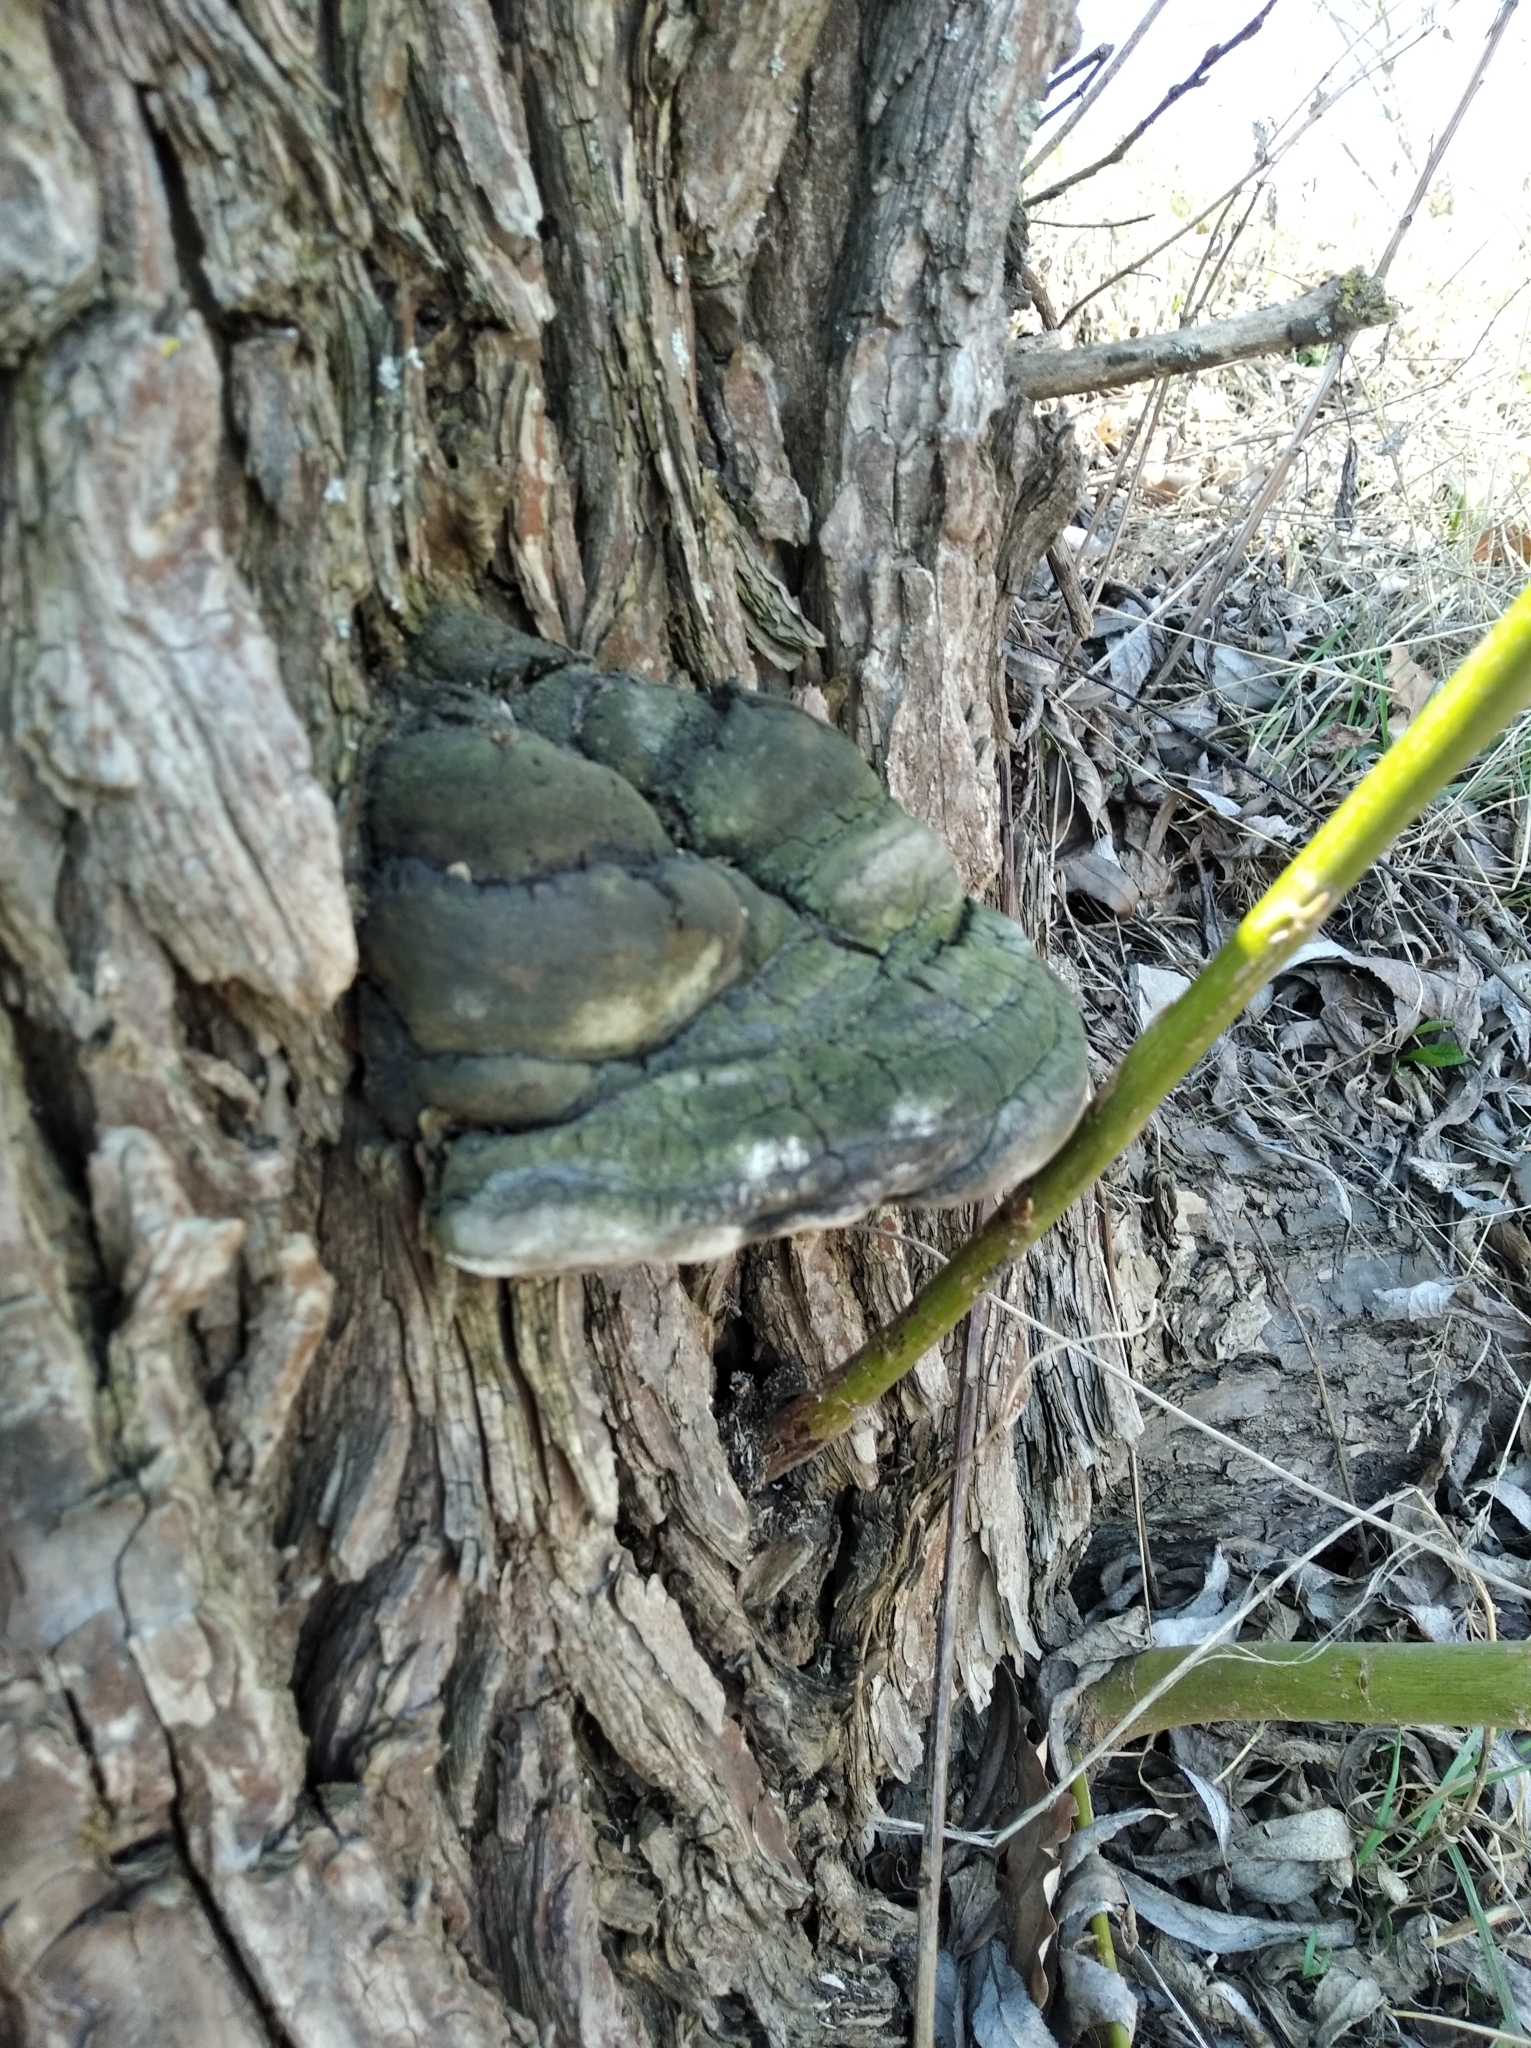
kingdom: Fungi
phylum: Basidiomycota
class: Agaricomycetes
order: Hymenochaetales
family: Hymenochaetaceae
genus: Phellinus
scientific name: Phellinus igniarius
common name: Willow bracket
